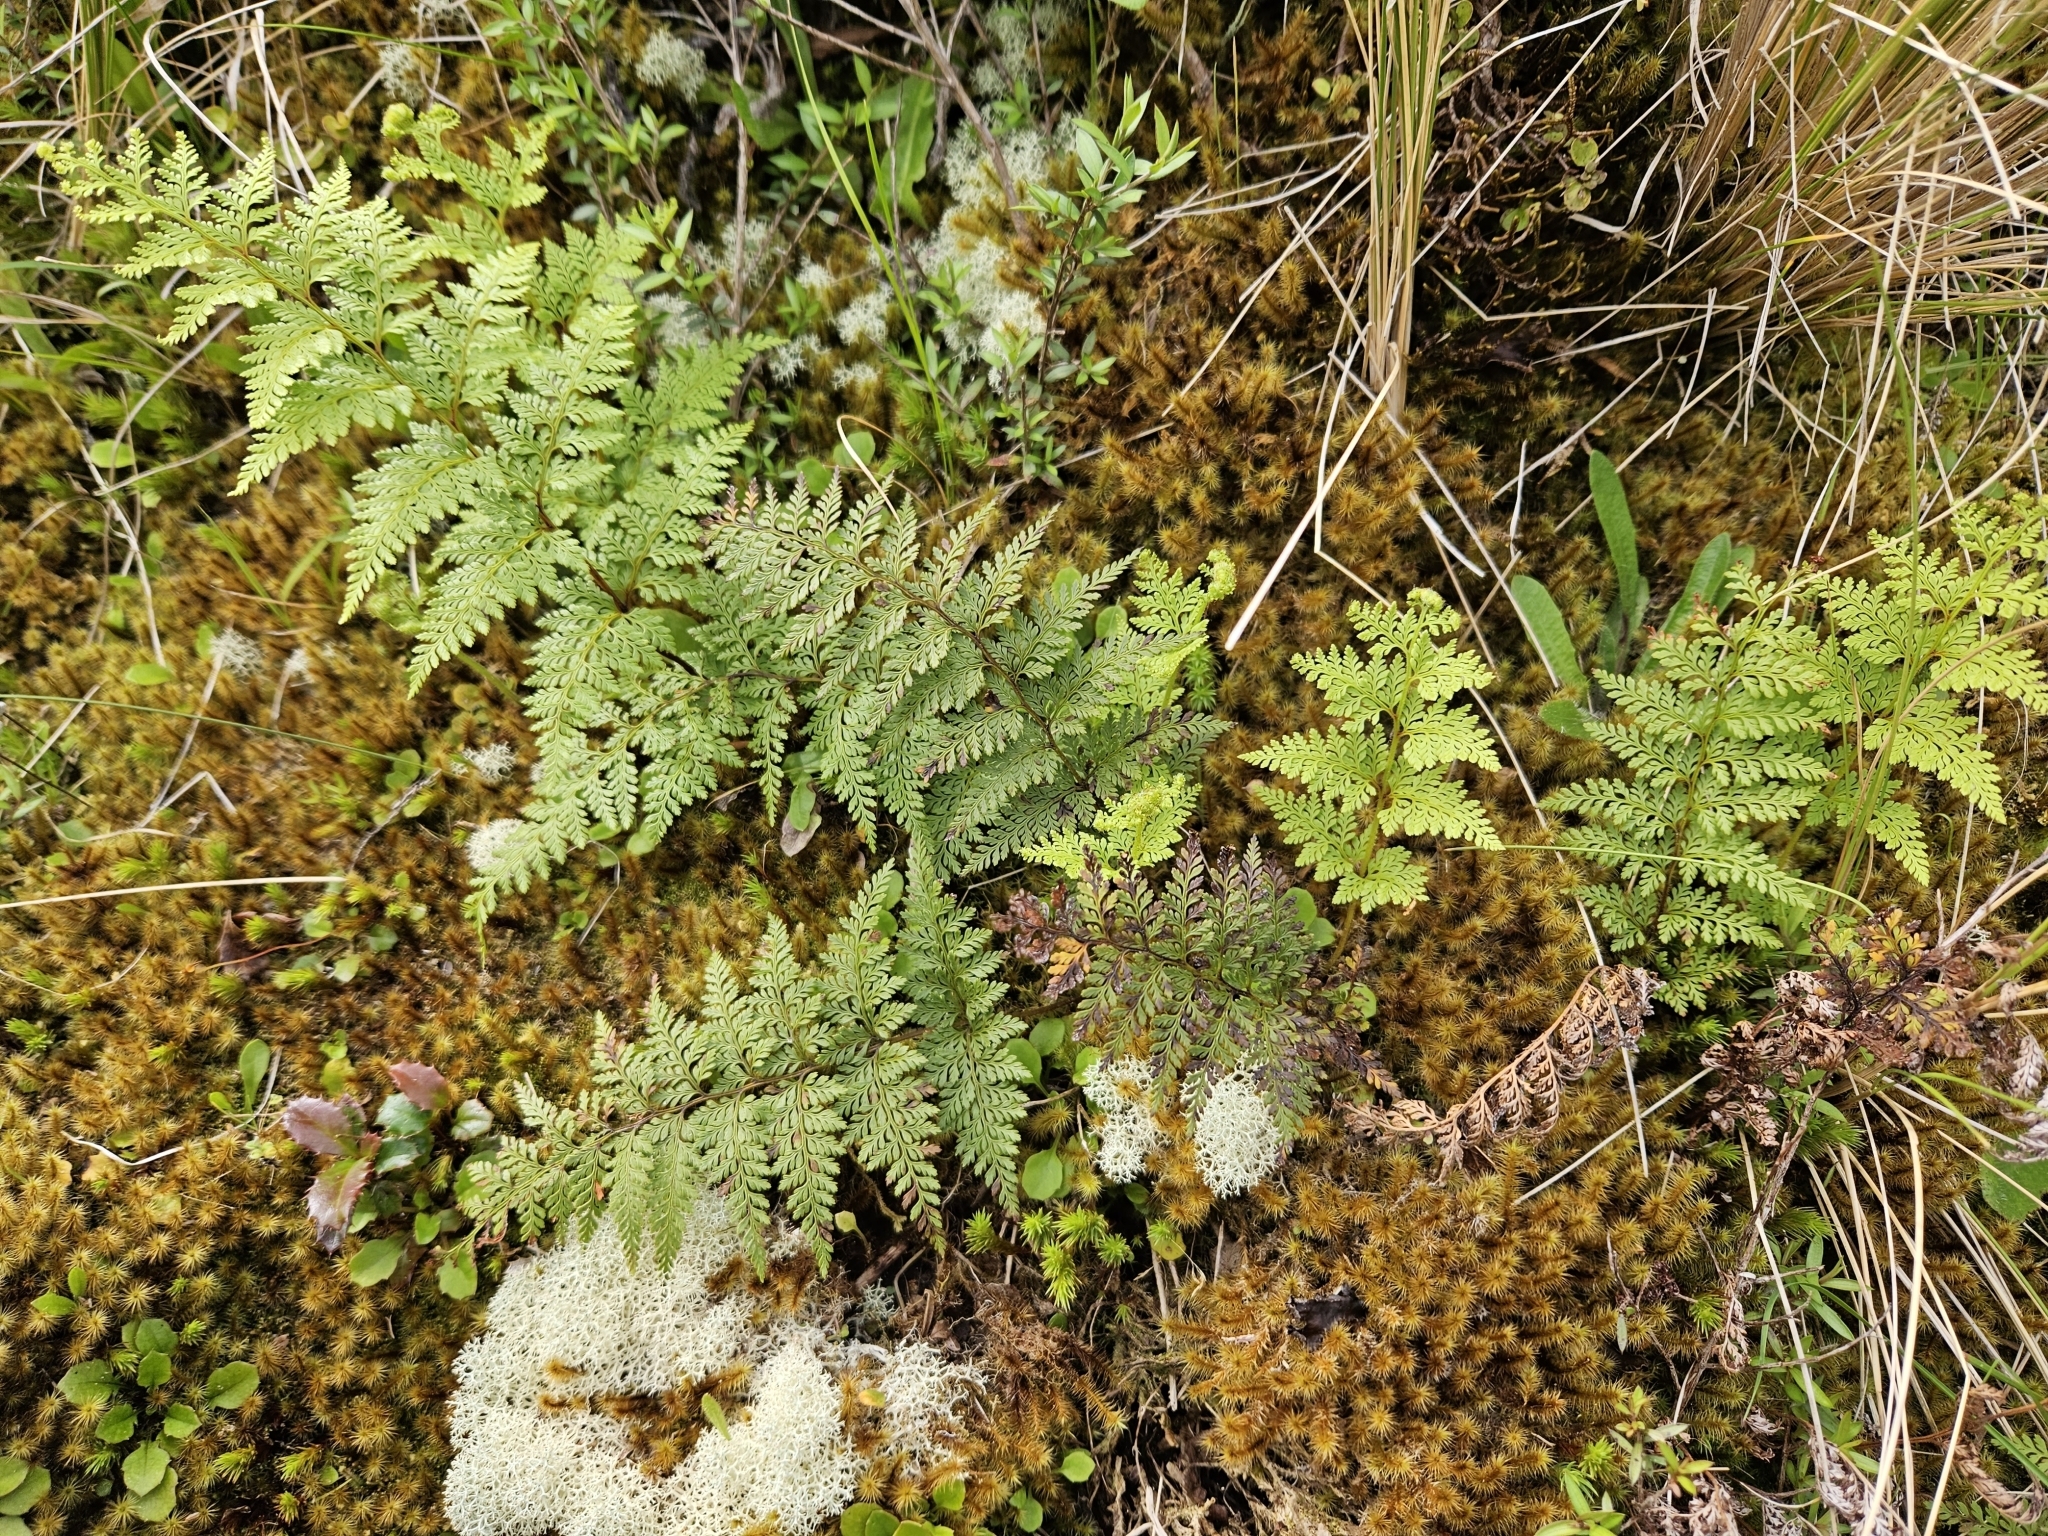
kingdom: Plantae
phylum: Tracheophyta
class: Polypodiopsida
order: Polypodiales
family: Dennstaedtiaceae
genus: Paesia
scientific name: Paesia scaberula
